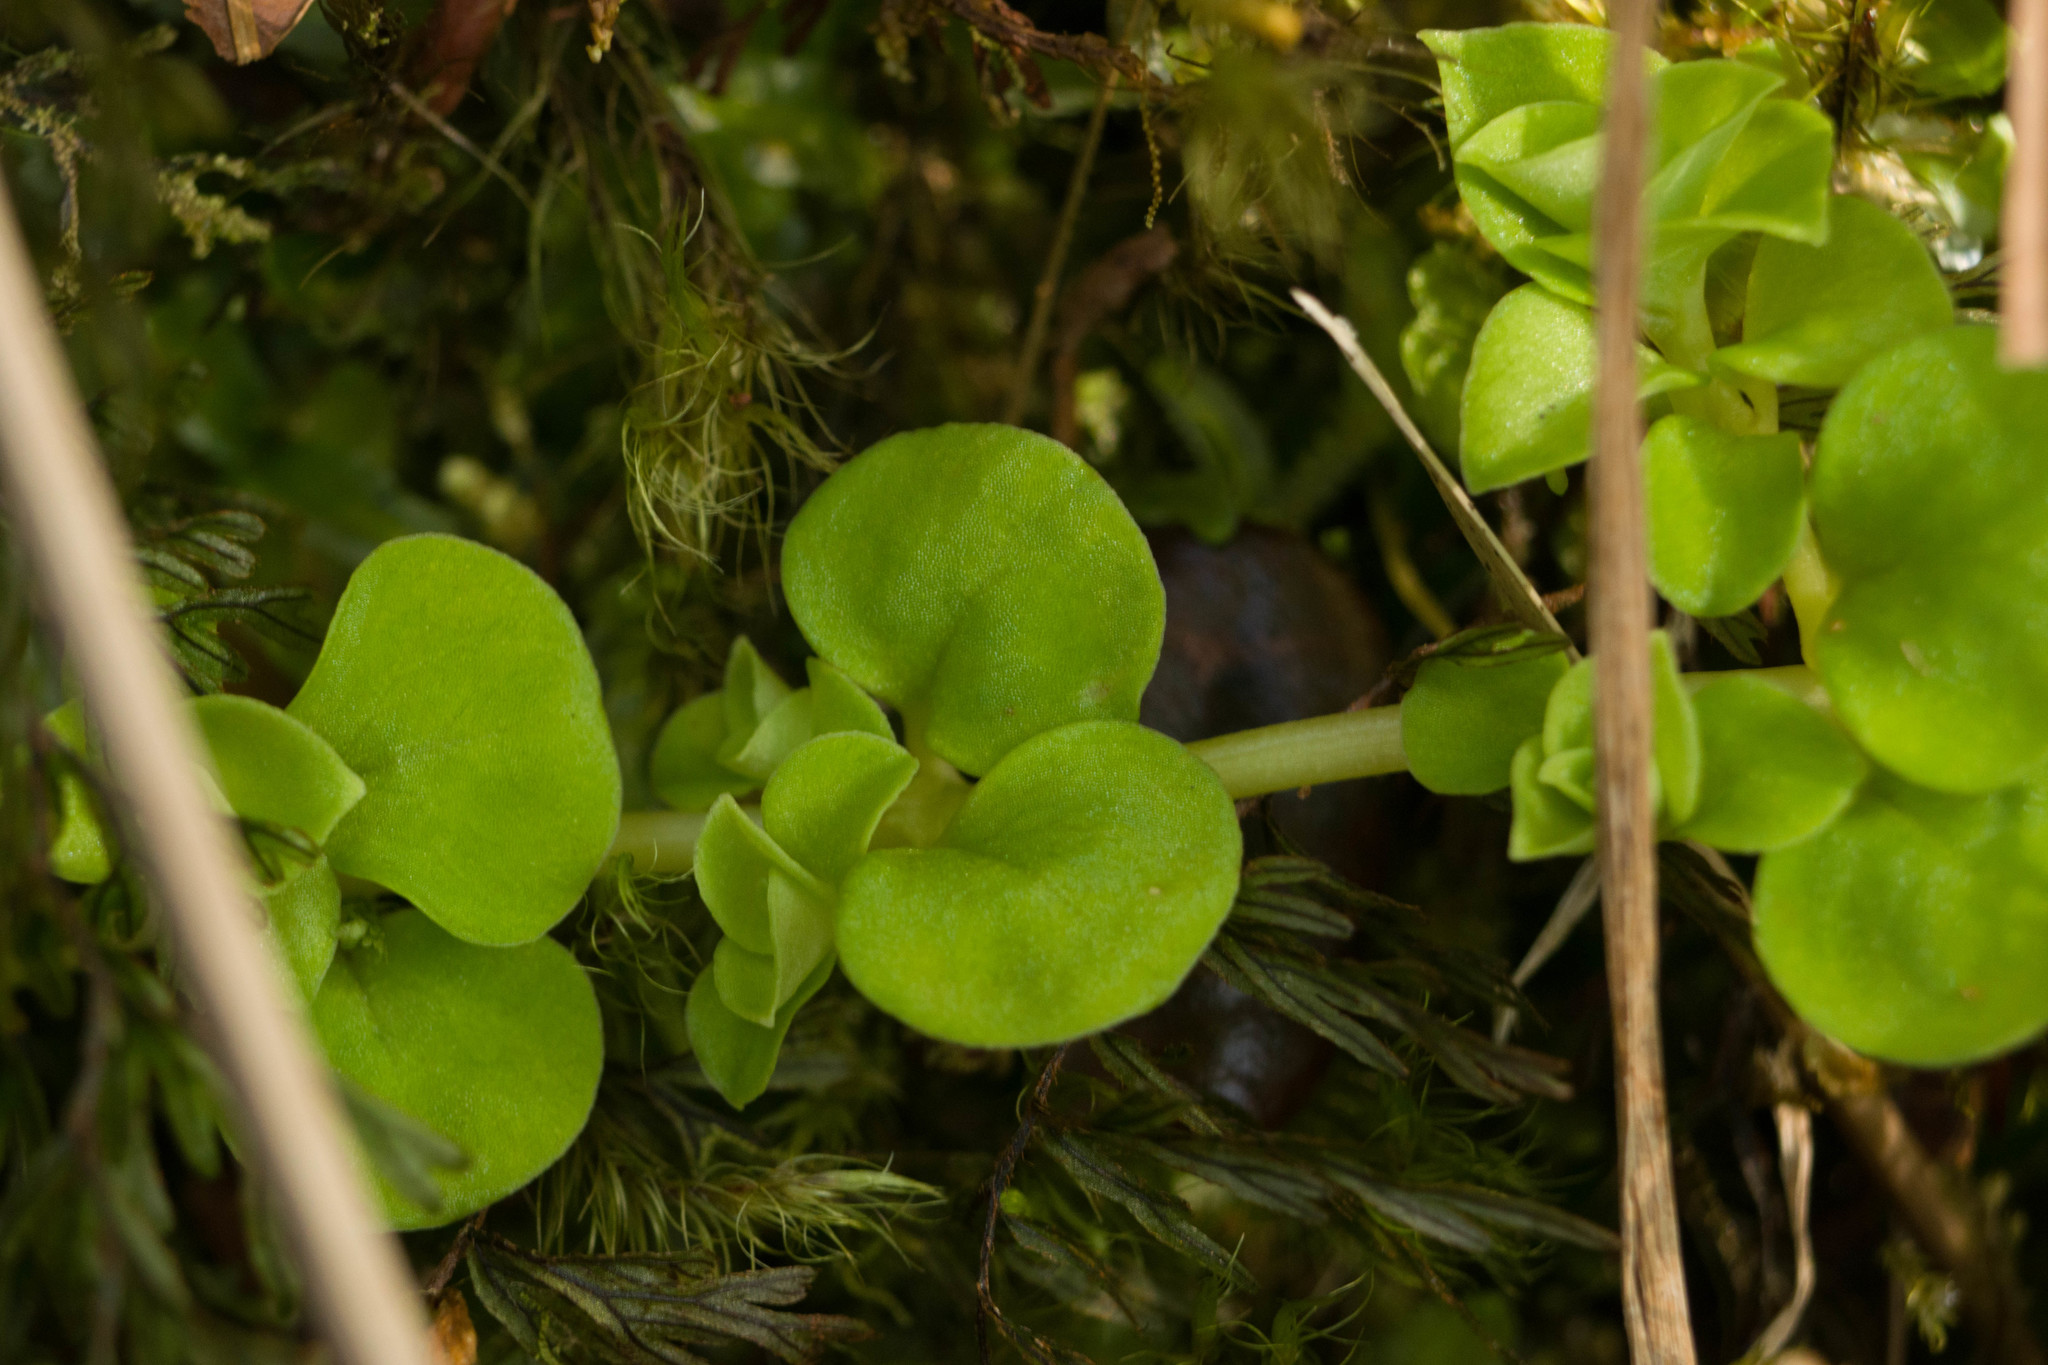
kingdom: Plantae
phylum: Tracheophyta
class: Magnoliopsida
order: Gentianales
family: Rubiaceae
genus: Nertera
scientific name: Nertera granadensis
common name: Beadplant
